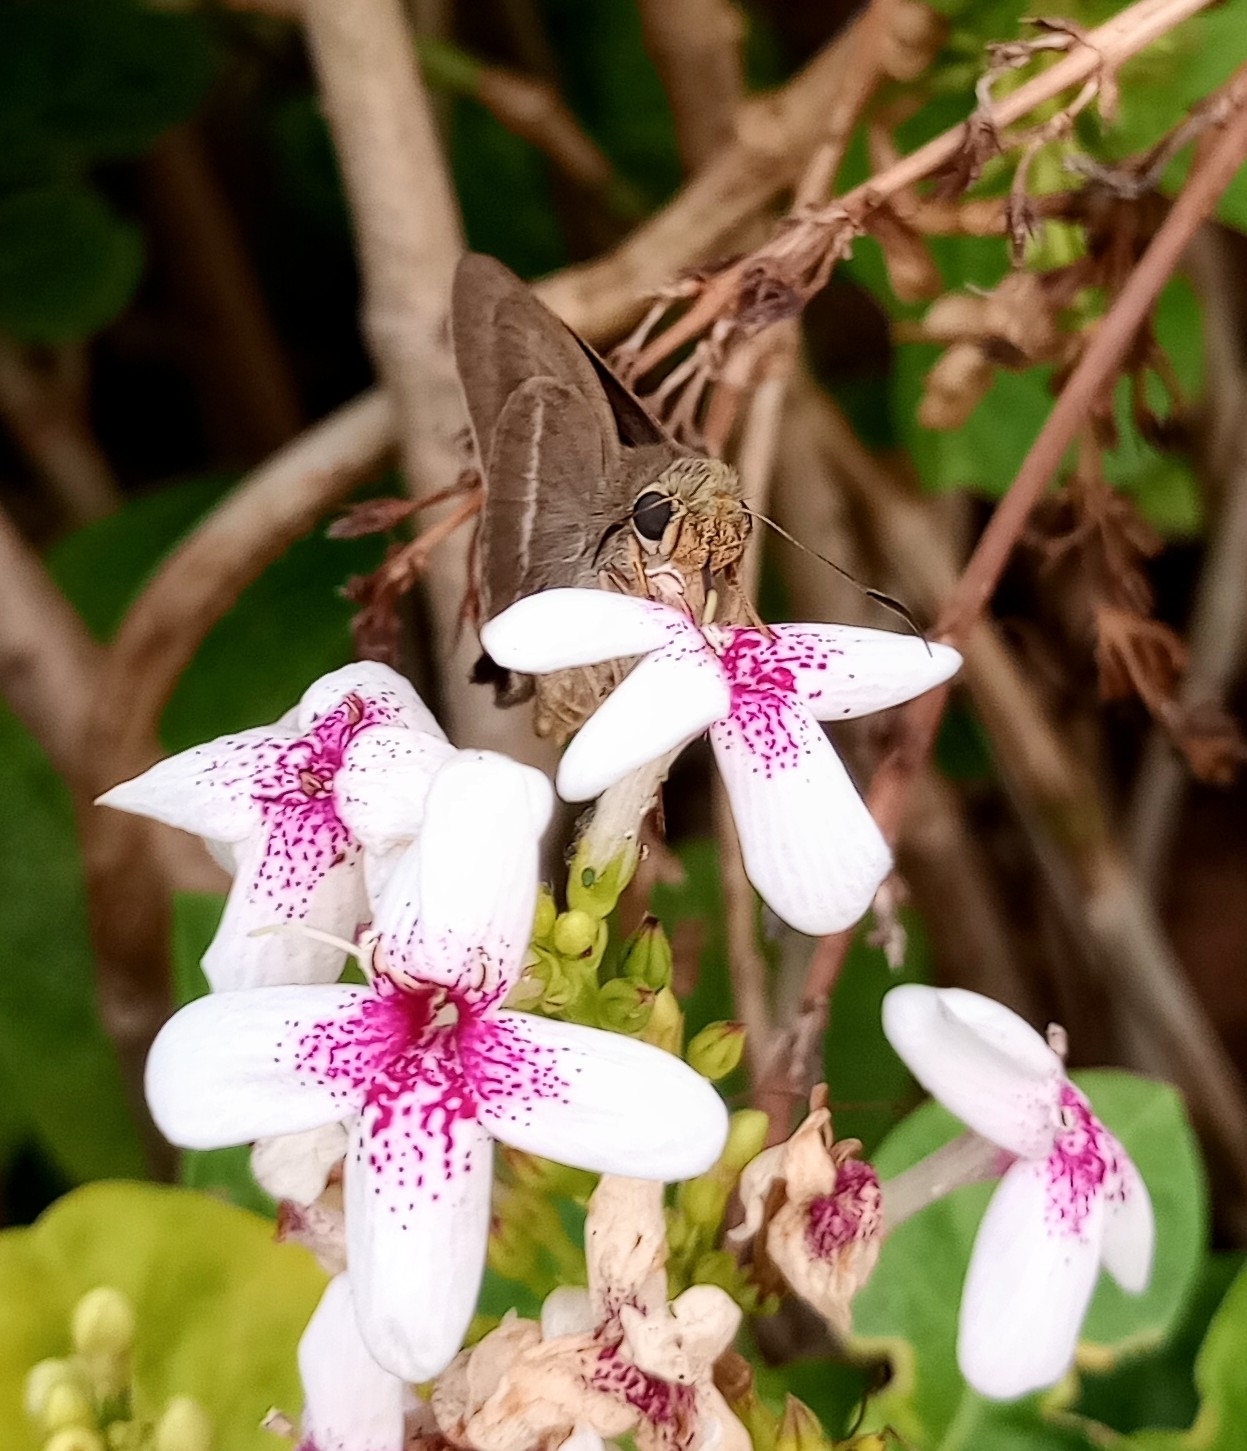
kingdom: Animalia
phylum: Arthropoda
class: Insecta
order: Lepidoptera
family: Hesperiidae
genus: Hasora
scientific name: Hasora chromus
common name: Common banded awl
